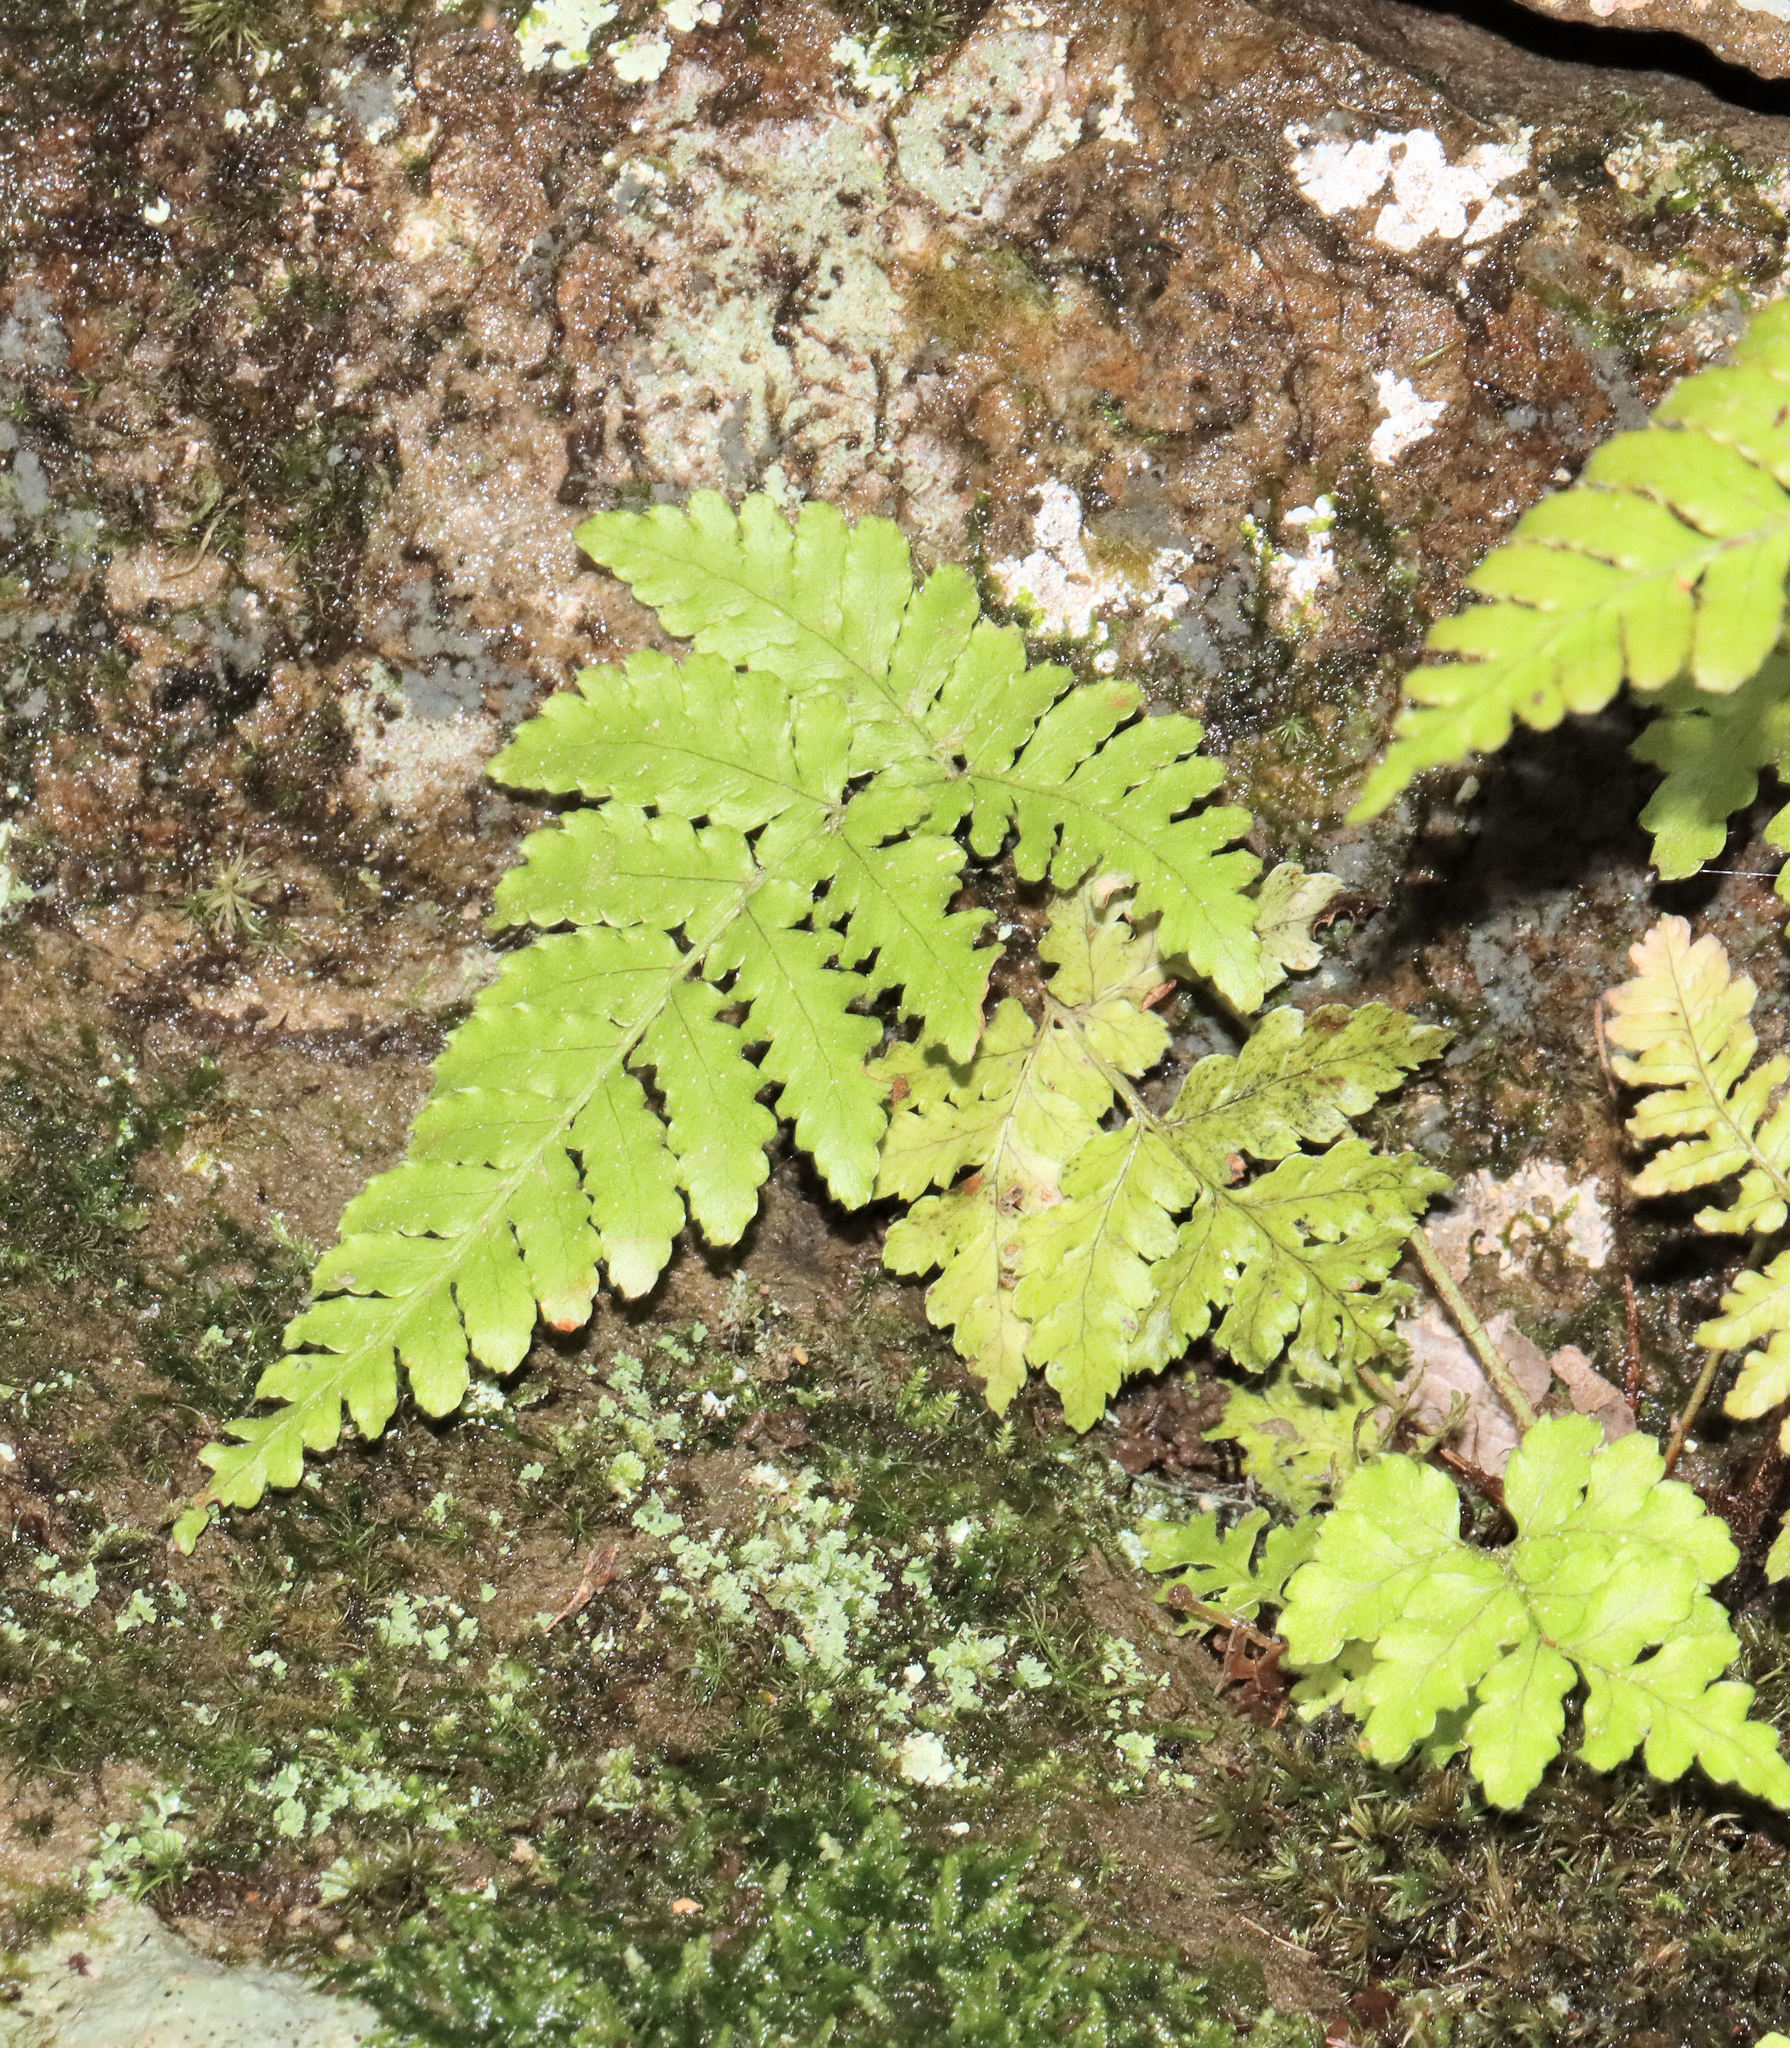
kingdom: Plantae
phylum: Tracheophyta
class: Polypodiopsida
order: Polypodiales
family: Dryopteridaceae
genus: Dryopteris
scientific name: Dryopteris erythrosora
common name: Autumn fern
